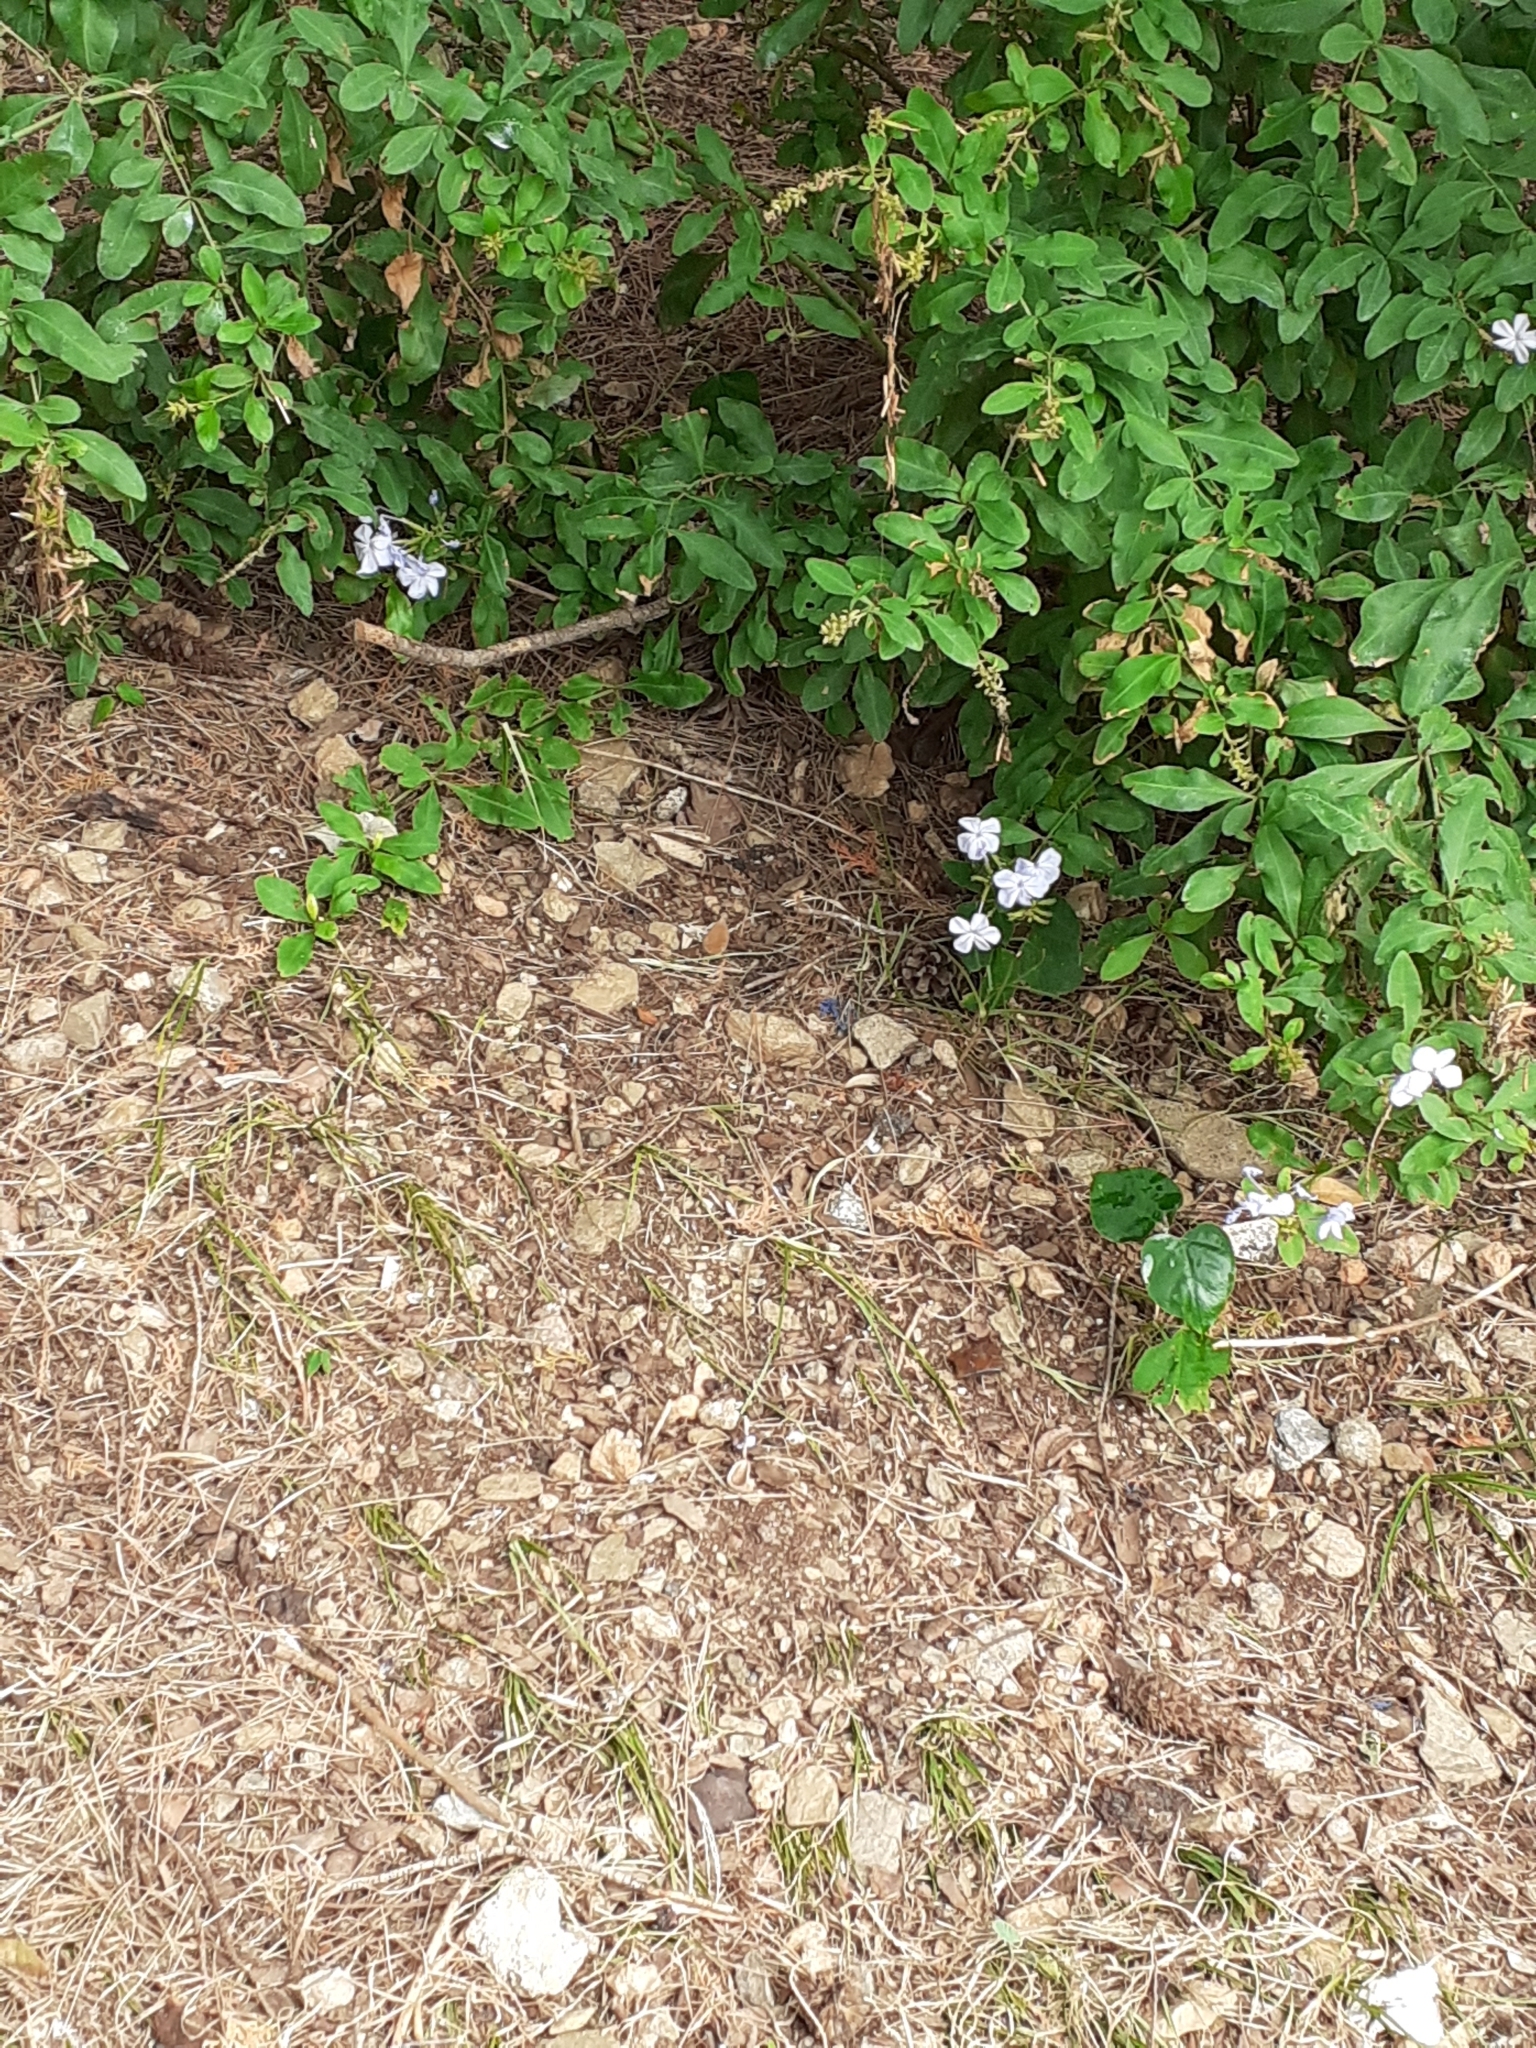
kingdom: Plantae
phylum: Tracheophyta
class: Magnoliopsida
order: Caryophyllales
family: Plumbaginaceae
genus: Plumbago
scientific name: Plumbago auriculata
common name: Cape leadwort
